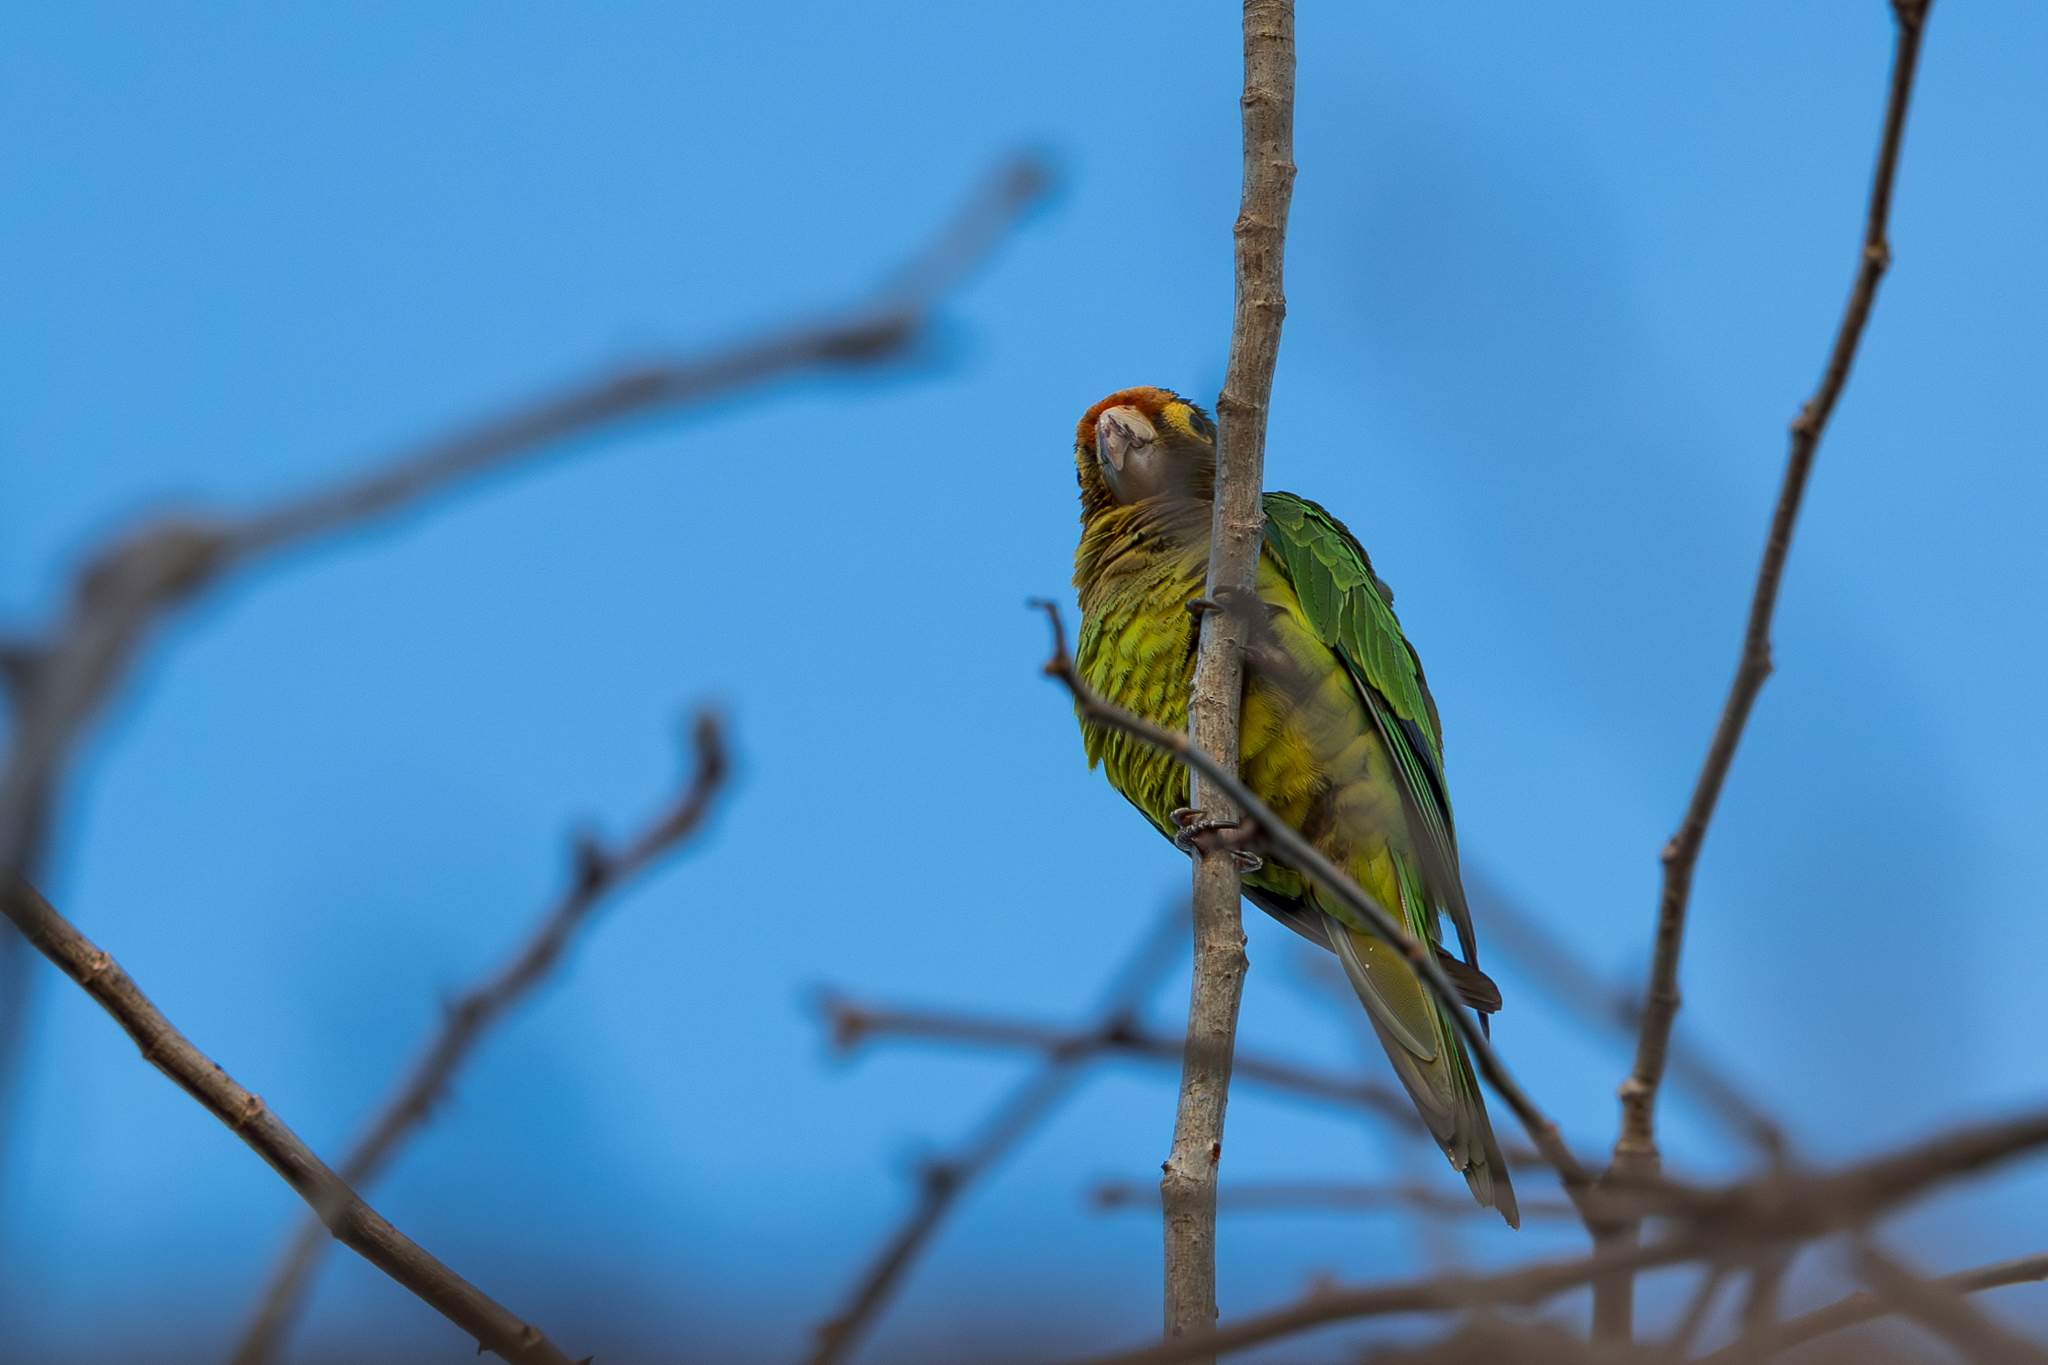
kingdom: Animalia
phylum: Chordata
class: Aves
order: Psittaciformes
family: Psittacidae
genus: Aratinga
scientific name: Aratinga canicularis
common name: Orange-fronted parakeet
